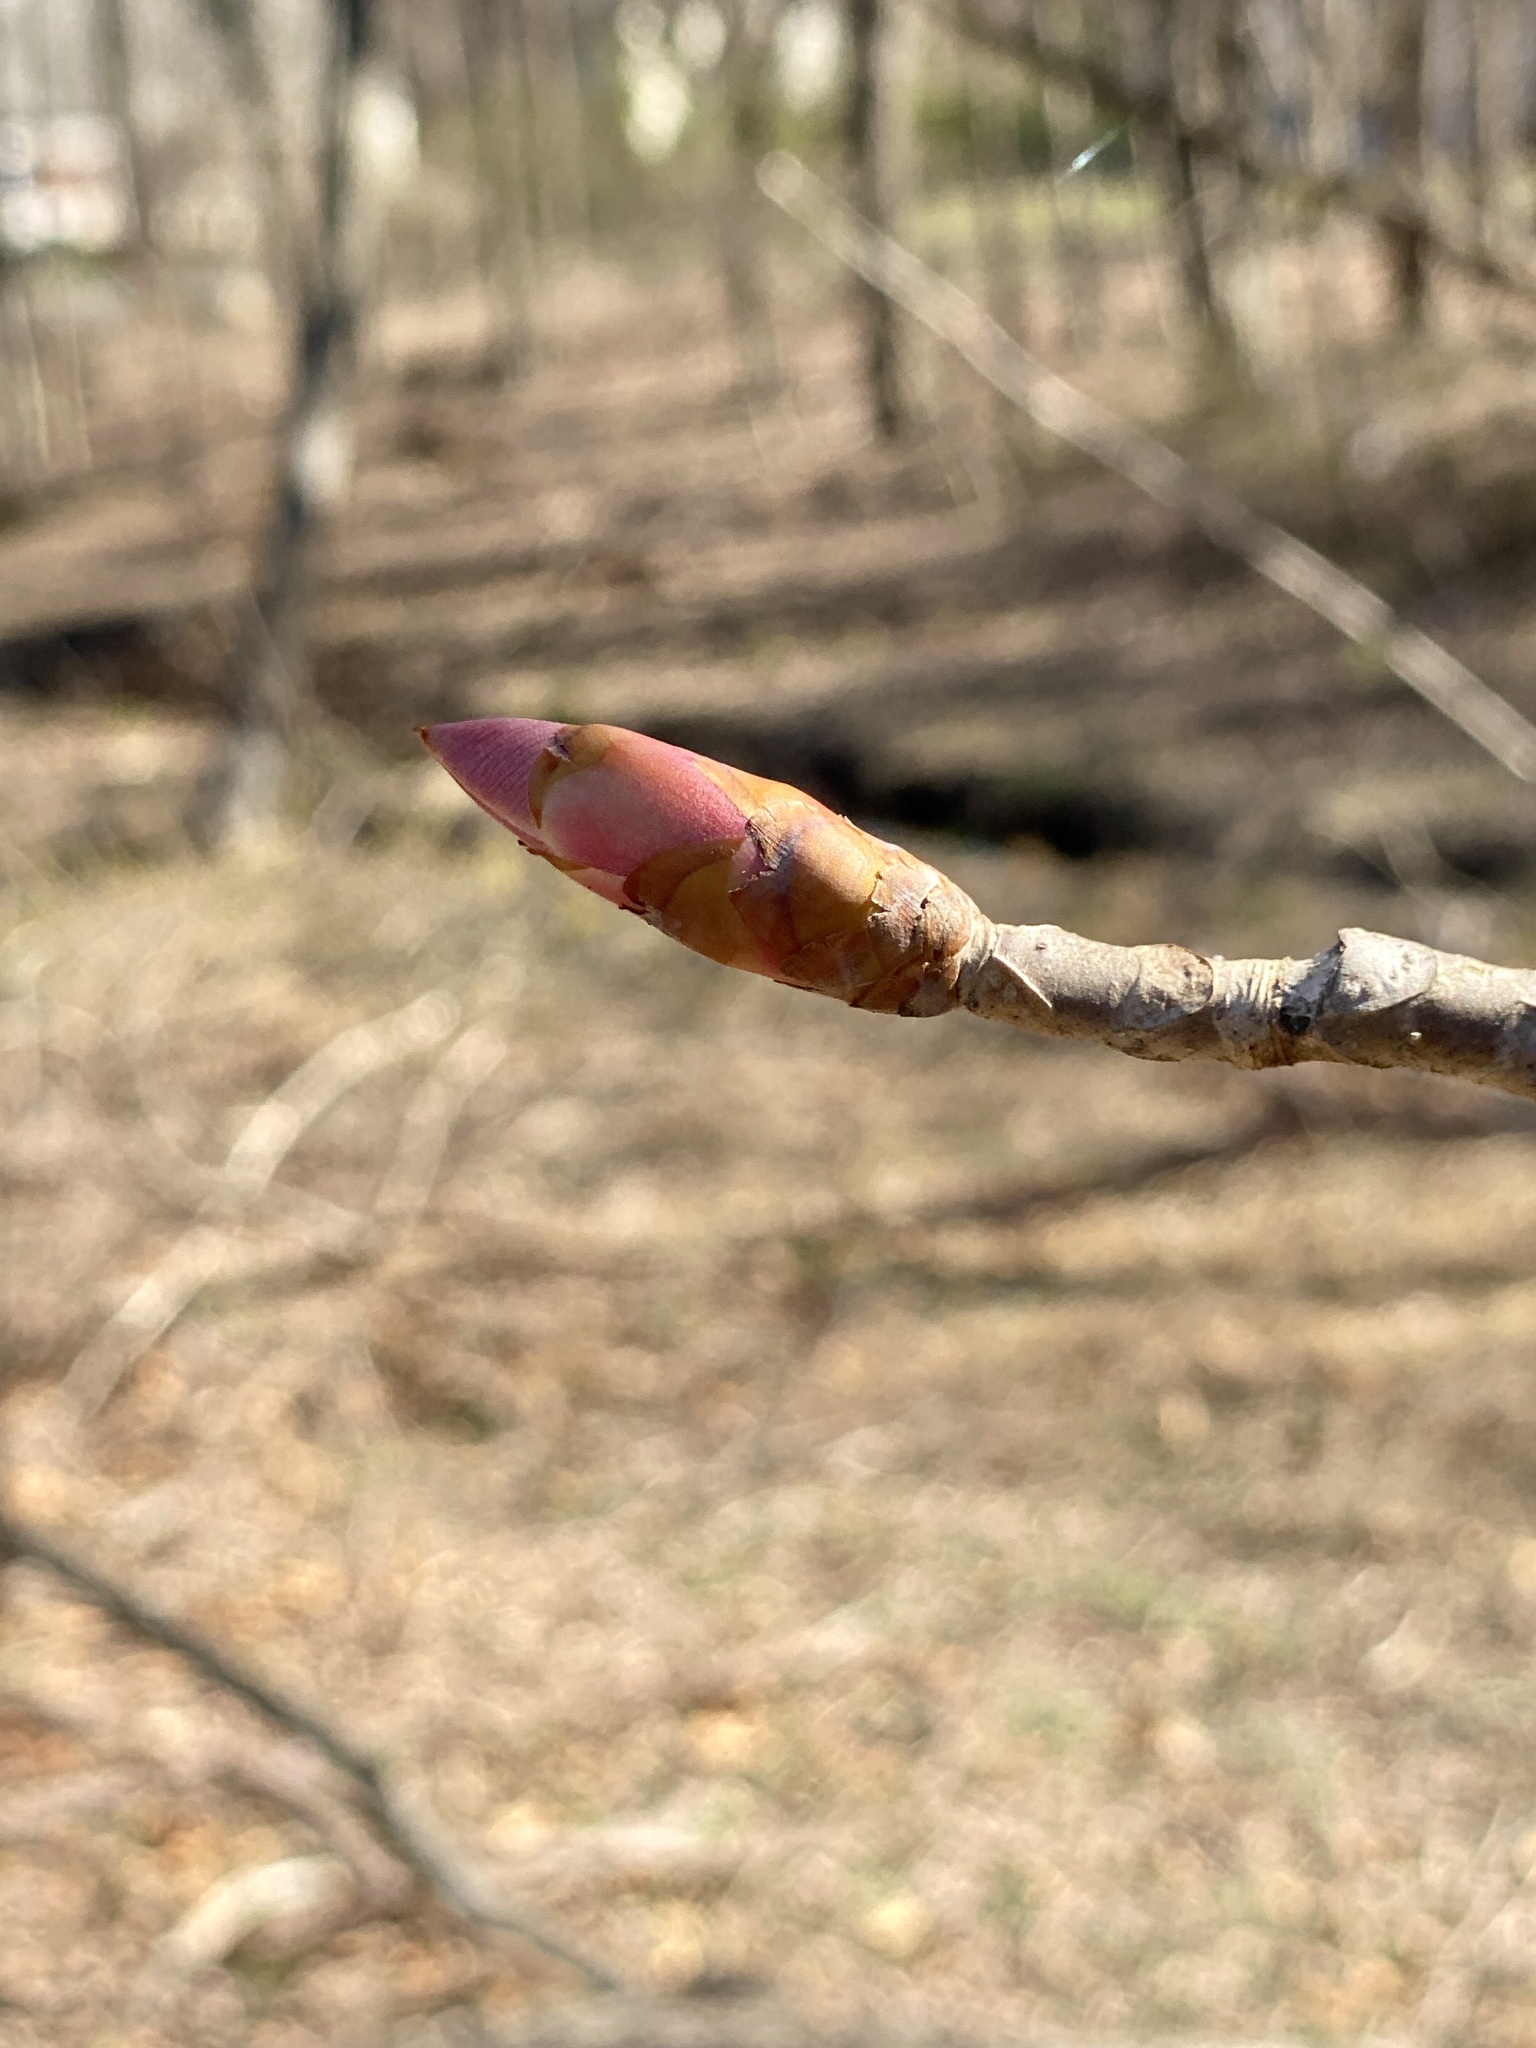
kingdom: Plantae
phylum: Tracheophyta
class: Magnoliopsida
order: Sapindales
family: Sapindaceae
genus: Aesculus
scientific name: Aesculus flava
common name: Yellow buckeye
